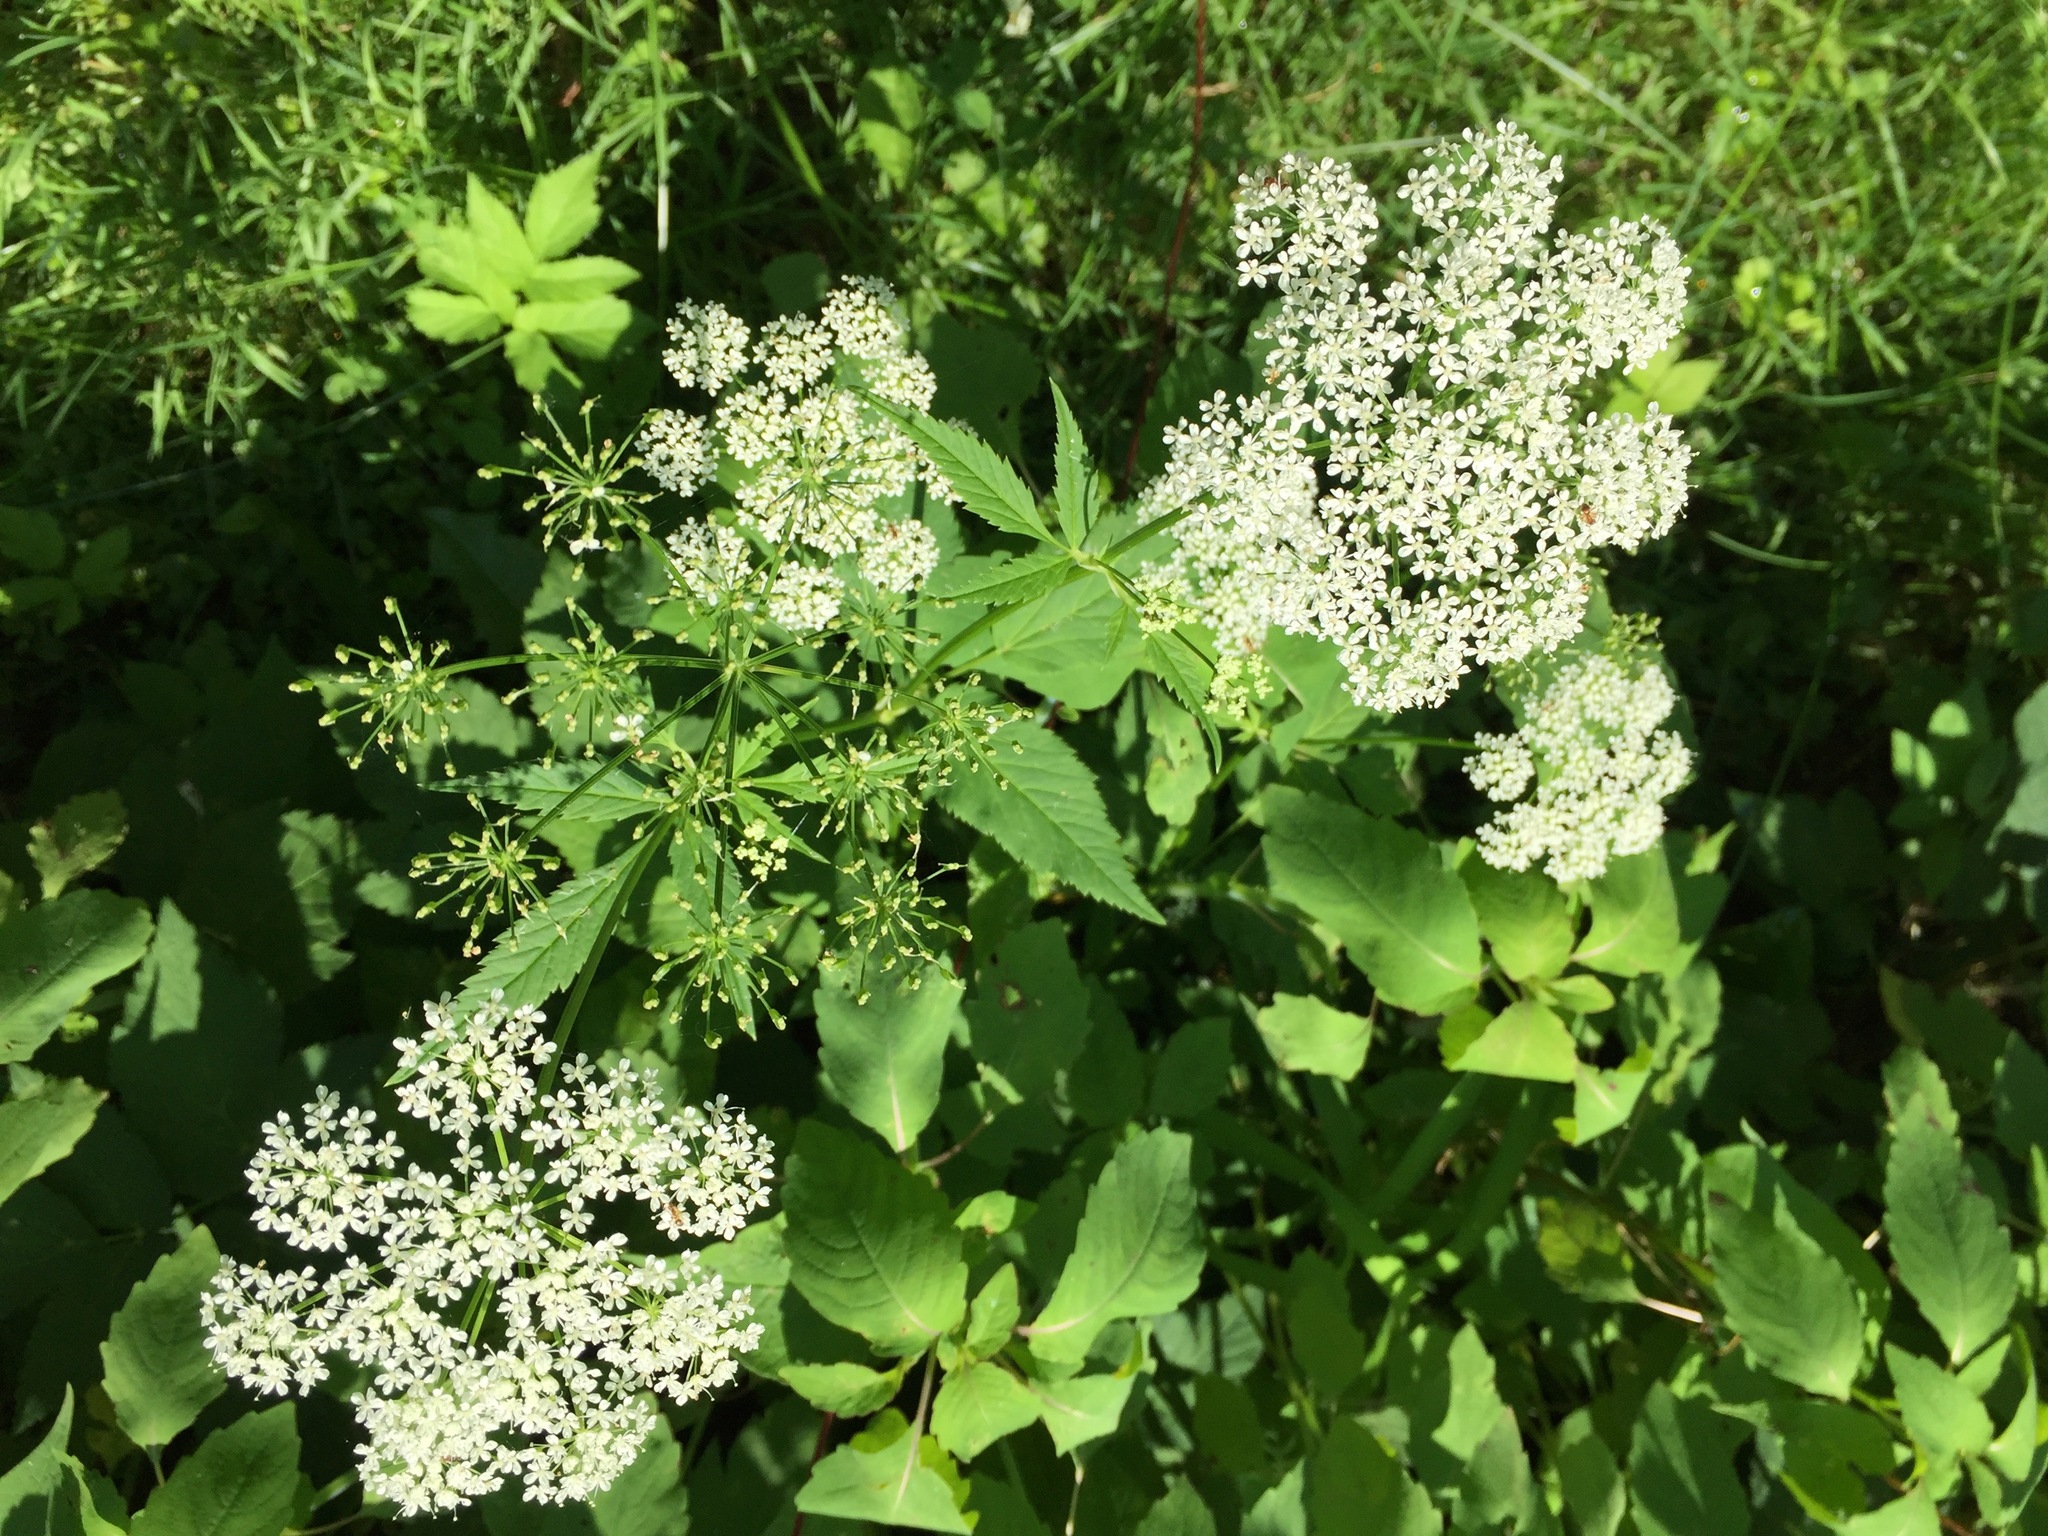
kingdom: Plantae
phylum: Tracheophyta
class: Magnoliopsida
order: Apiales
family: Apiaceae
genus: Aegopodium
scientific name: Aegopodium podagraria
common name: Ground-elder
